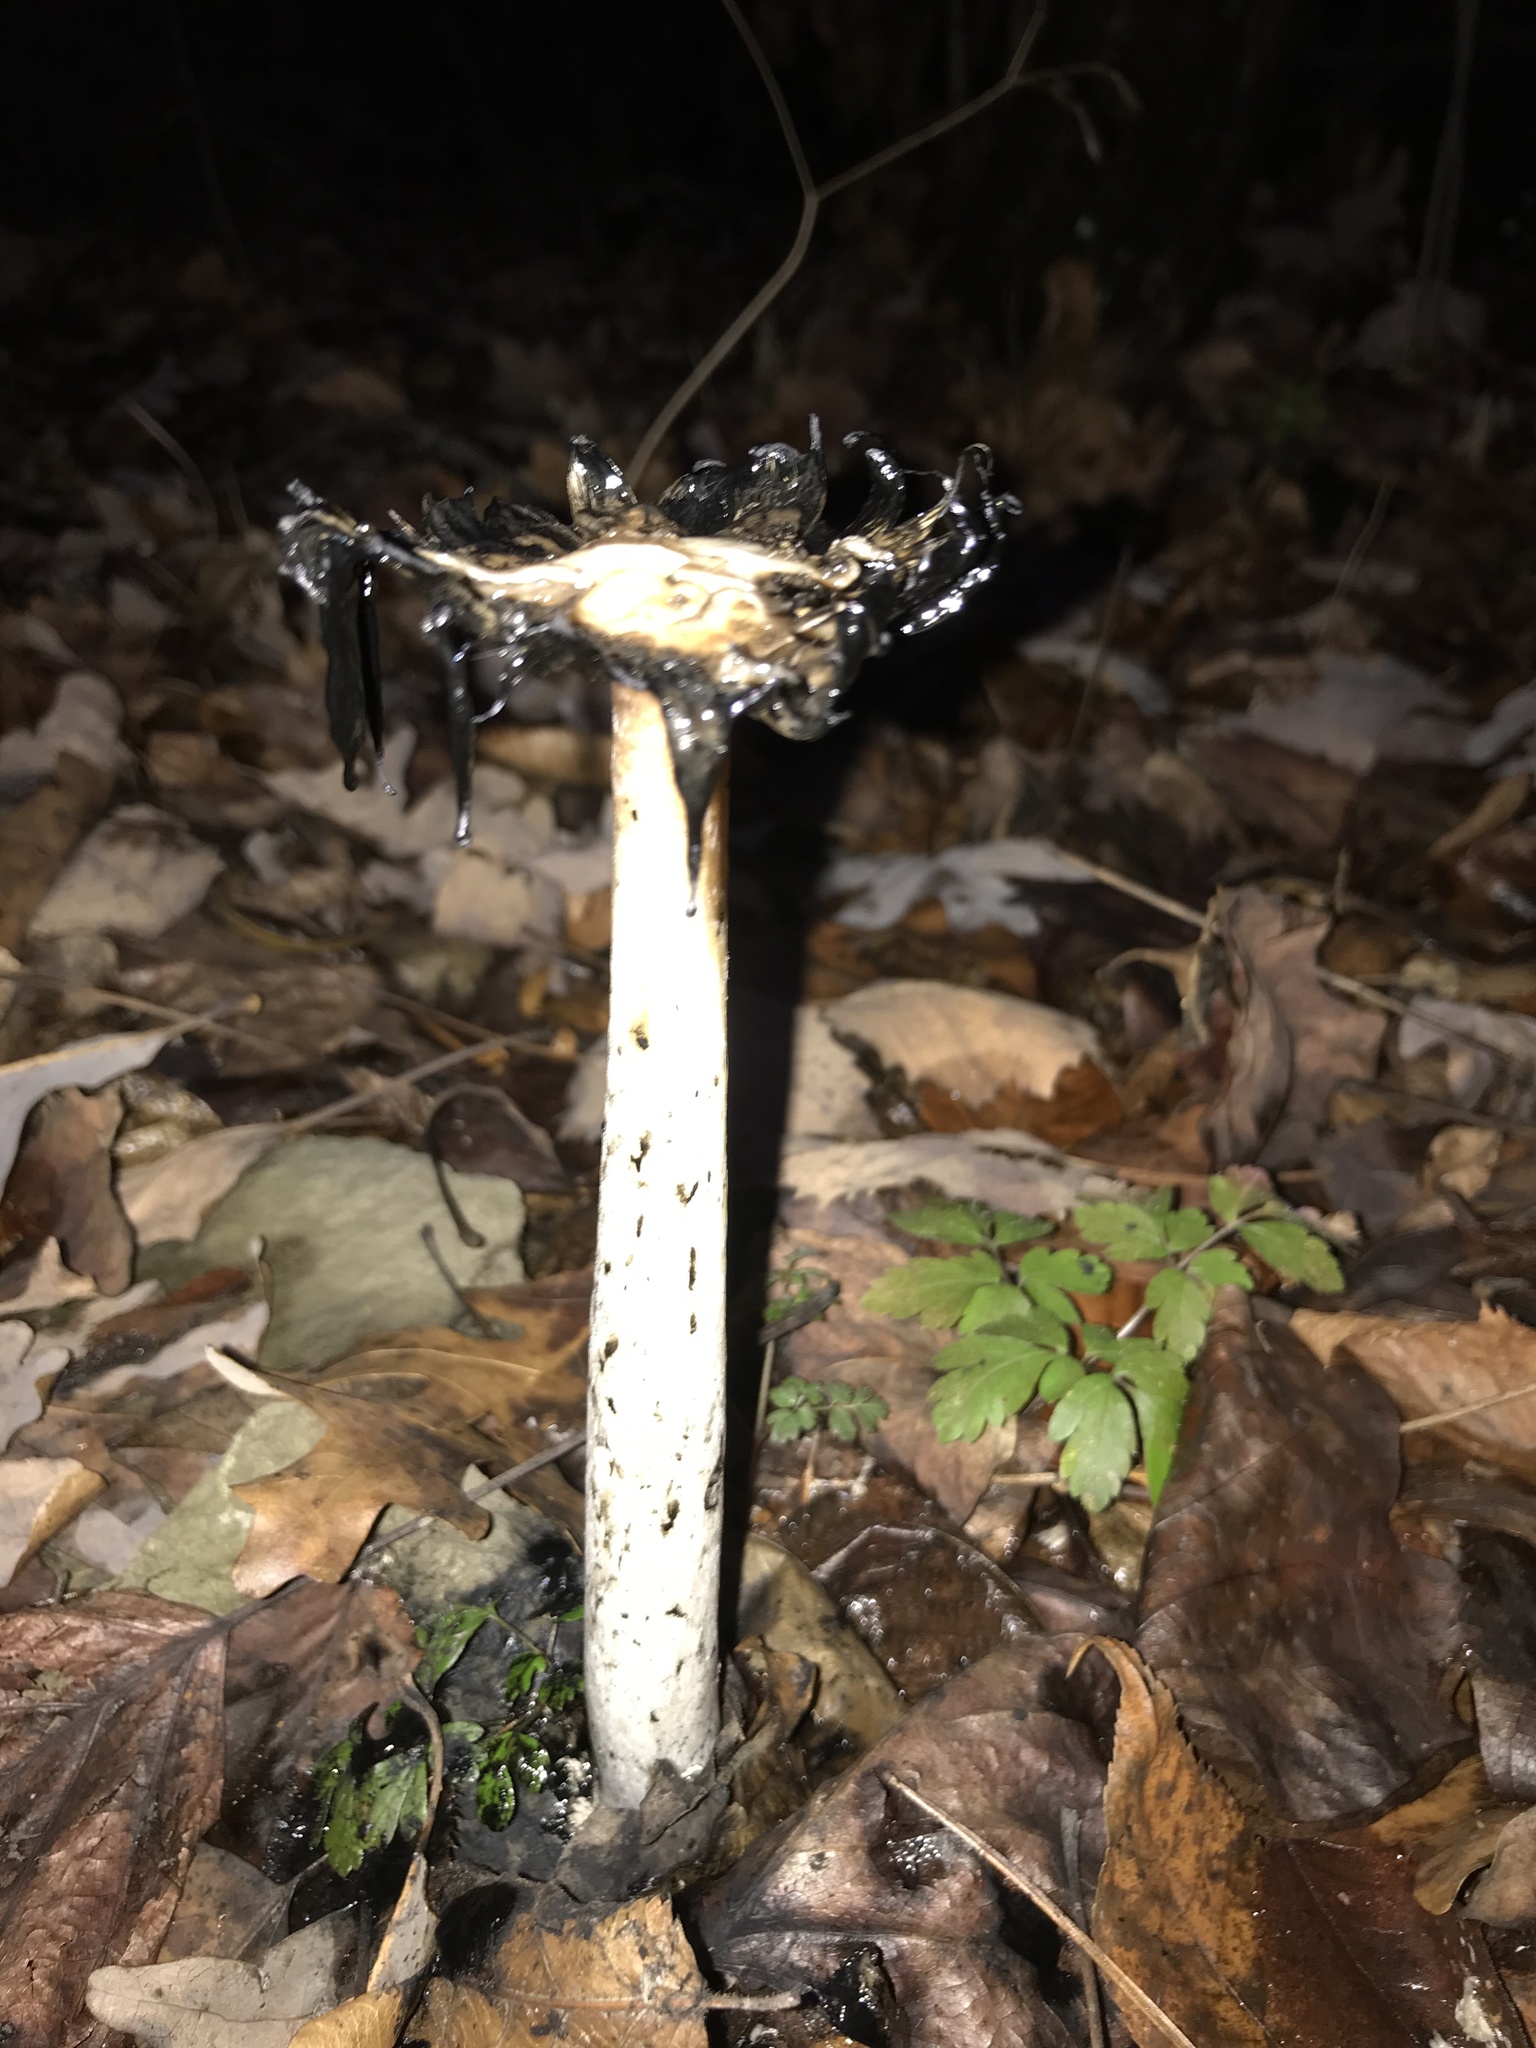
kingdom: Fungi
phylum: Basidiomycota
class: Agaricomycetes
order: Agaricales
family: Agaricaceae
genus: Coprinus
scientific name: Coprinus comatus
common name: Lawyer's wig
